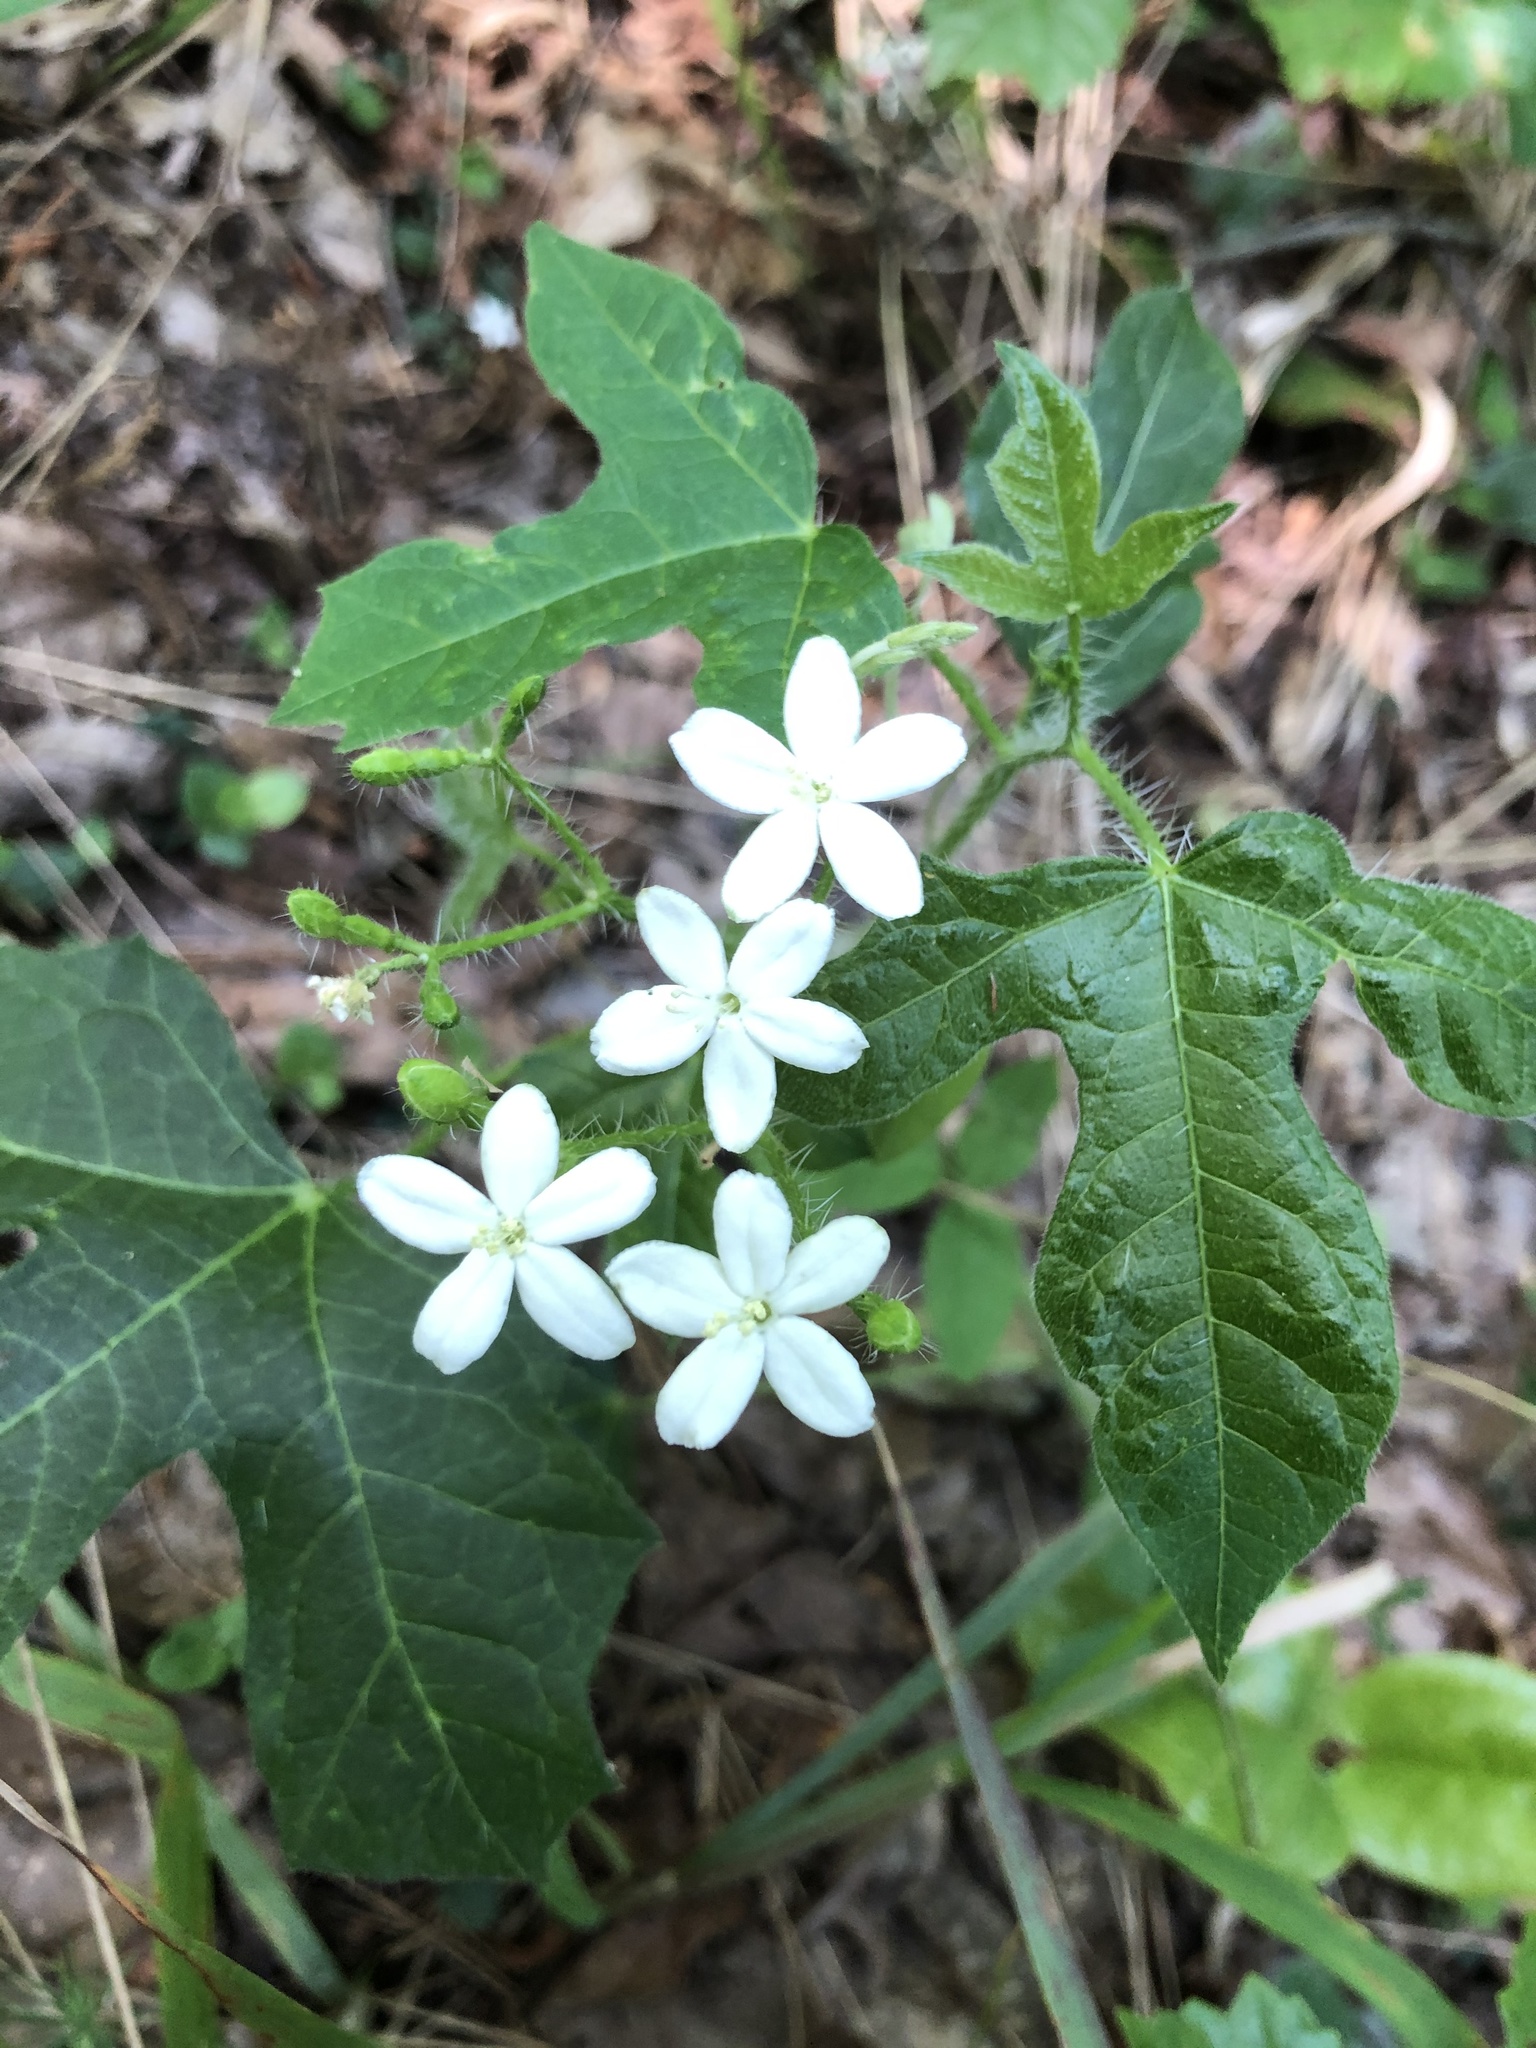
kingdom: Plantae
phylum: Tracheophyta
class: Magnoliopsida
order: Malpighiales
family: Euphorbiaceae
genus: Cnidoscolus
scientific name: Cnidoscolus stimulosus
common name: Bull-nettle
